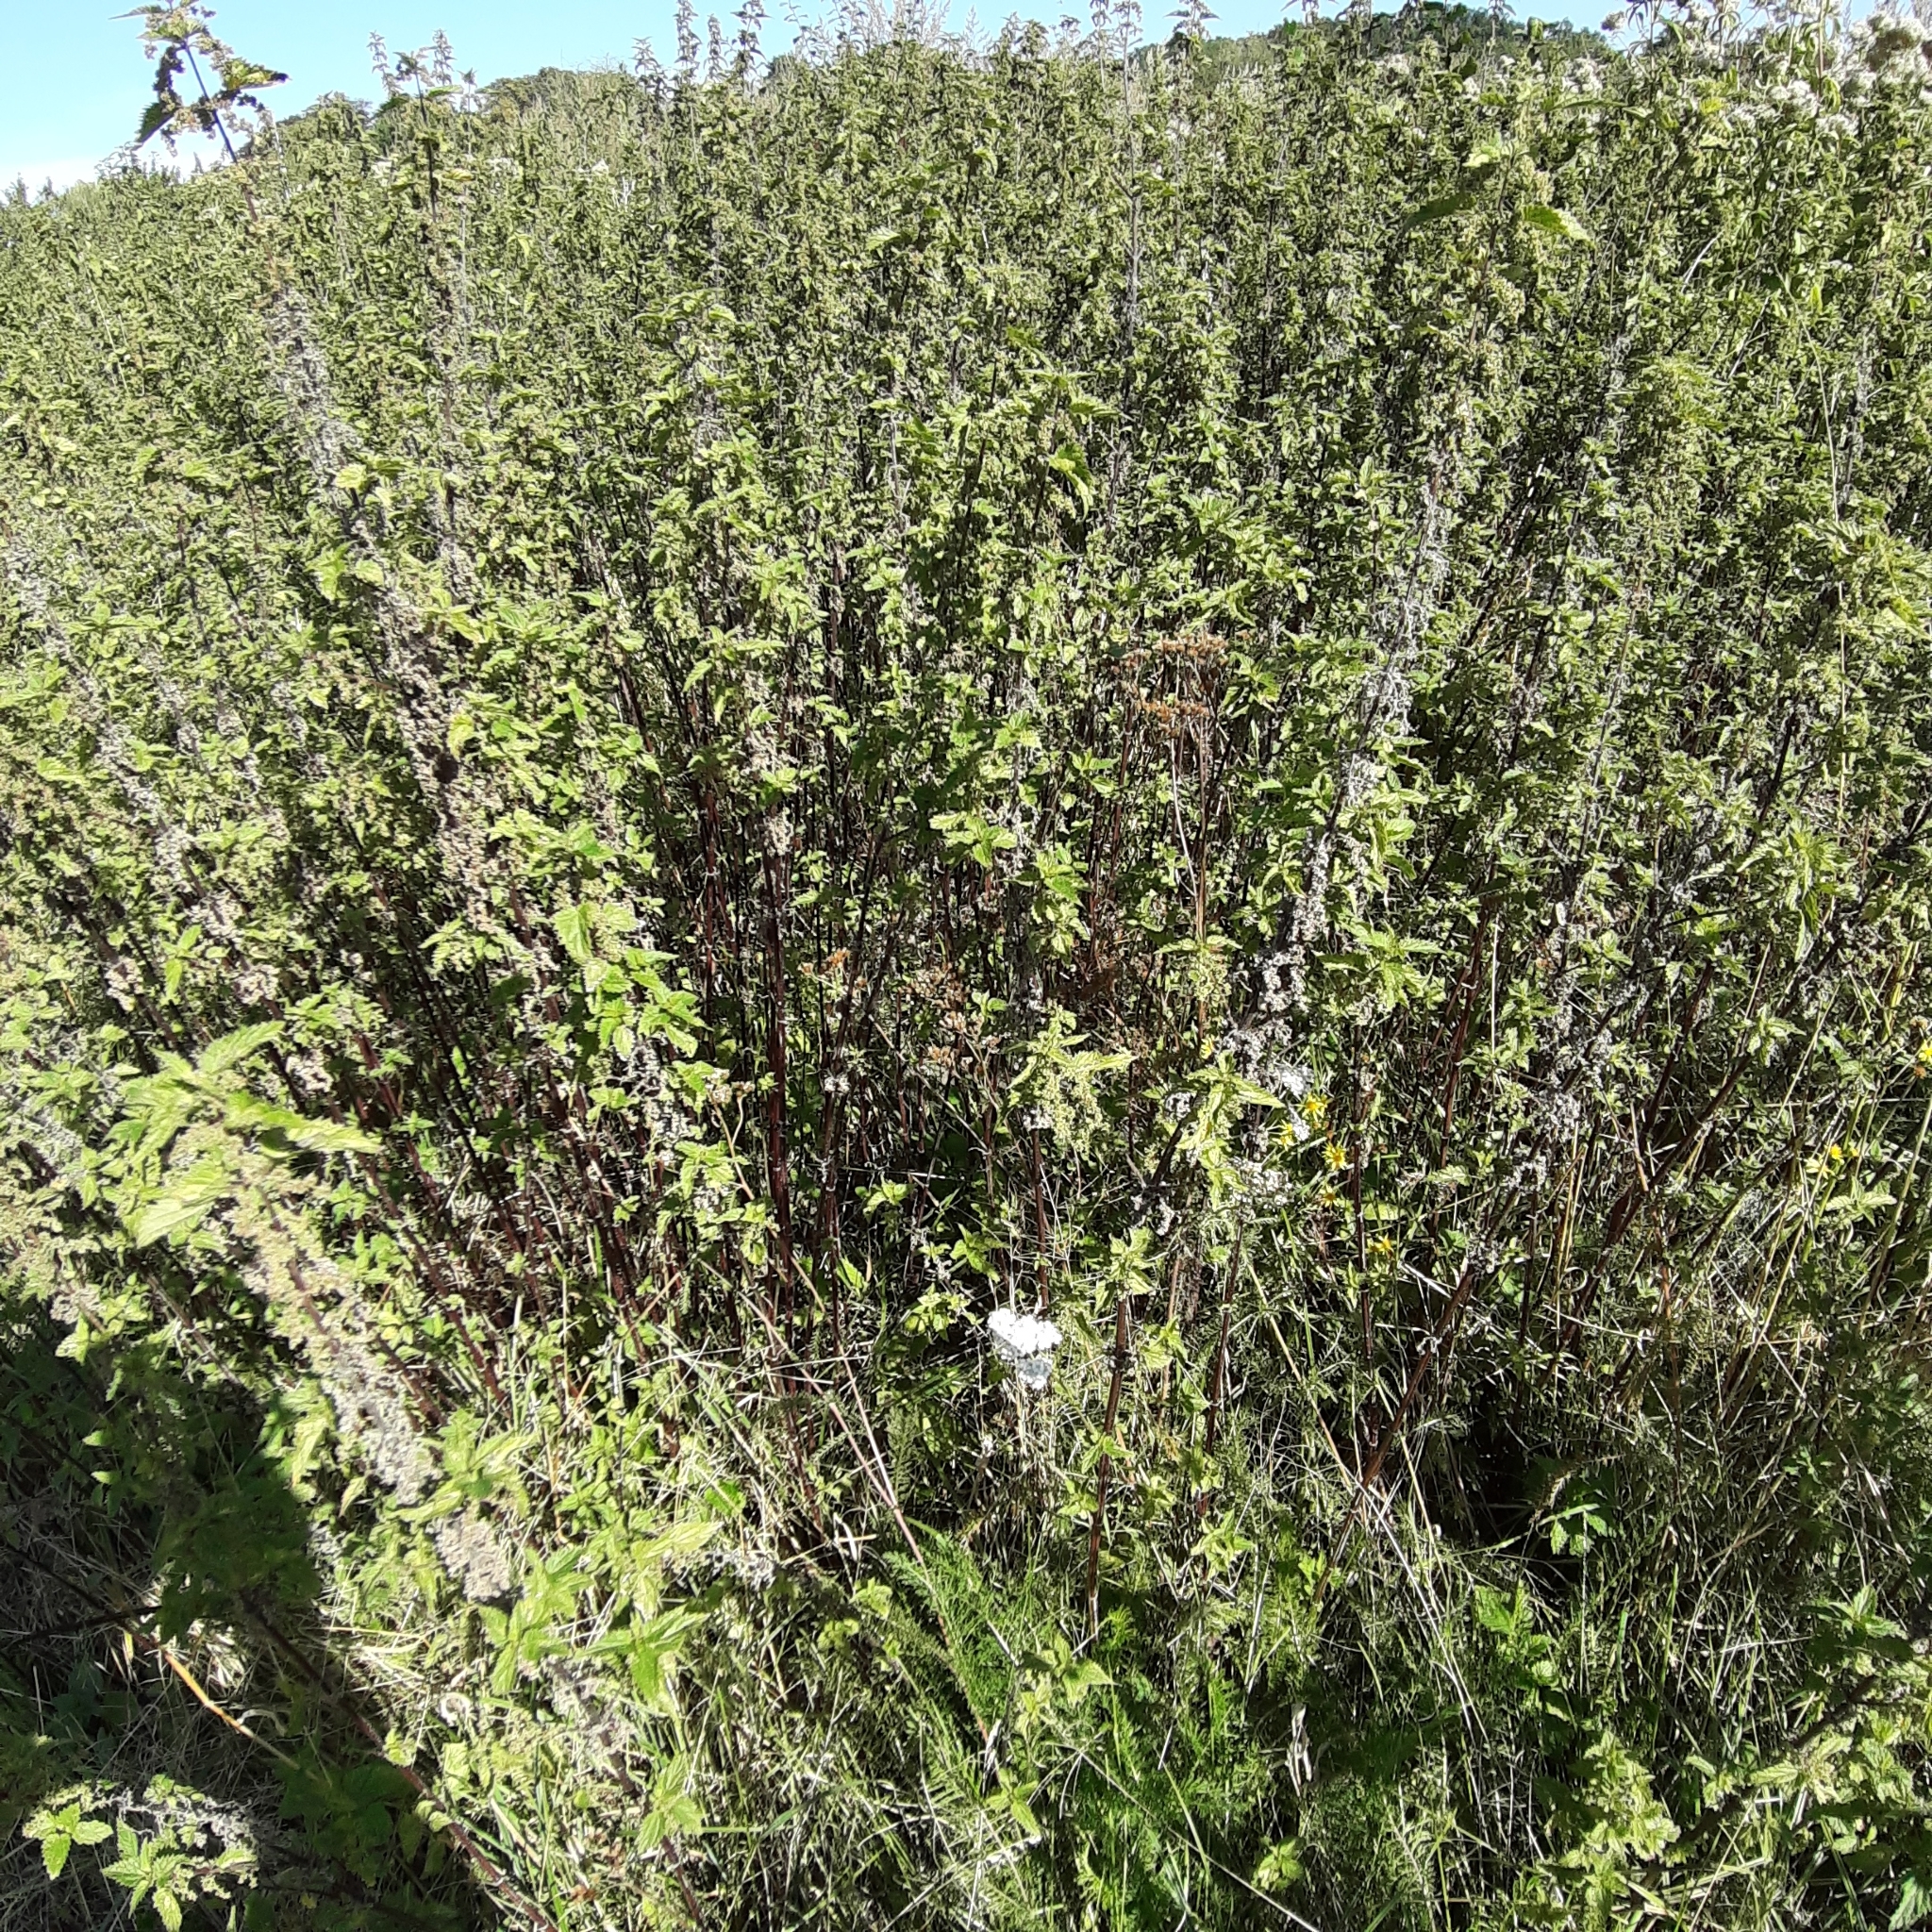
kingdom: Plantae
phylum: Tracheophyta
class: Magnoliopsida
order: Rosales
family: Urticaceae
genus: Urtica
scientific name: Urtica dioica
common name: Common nettle
